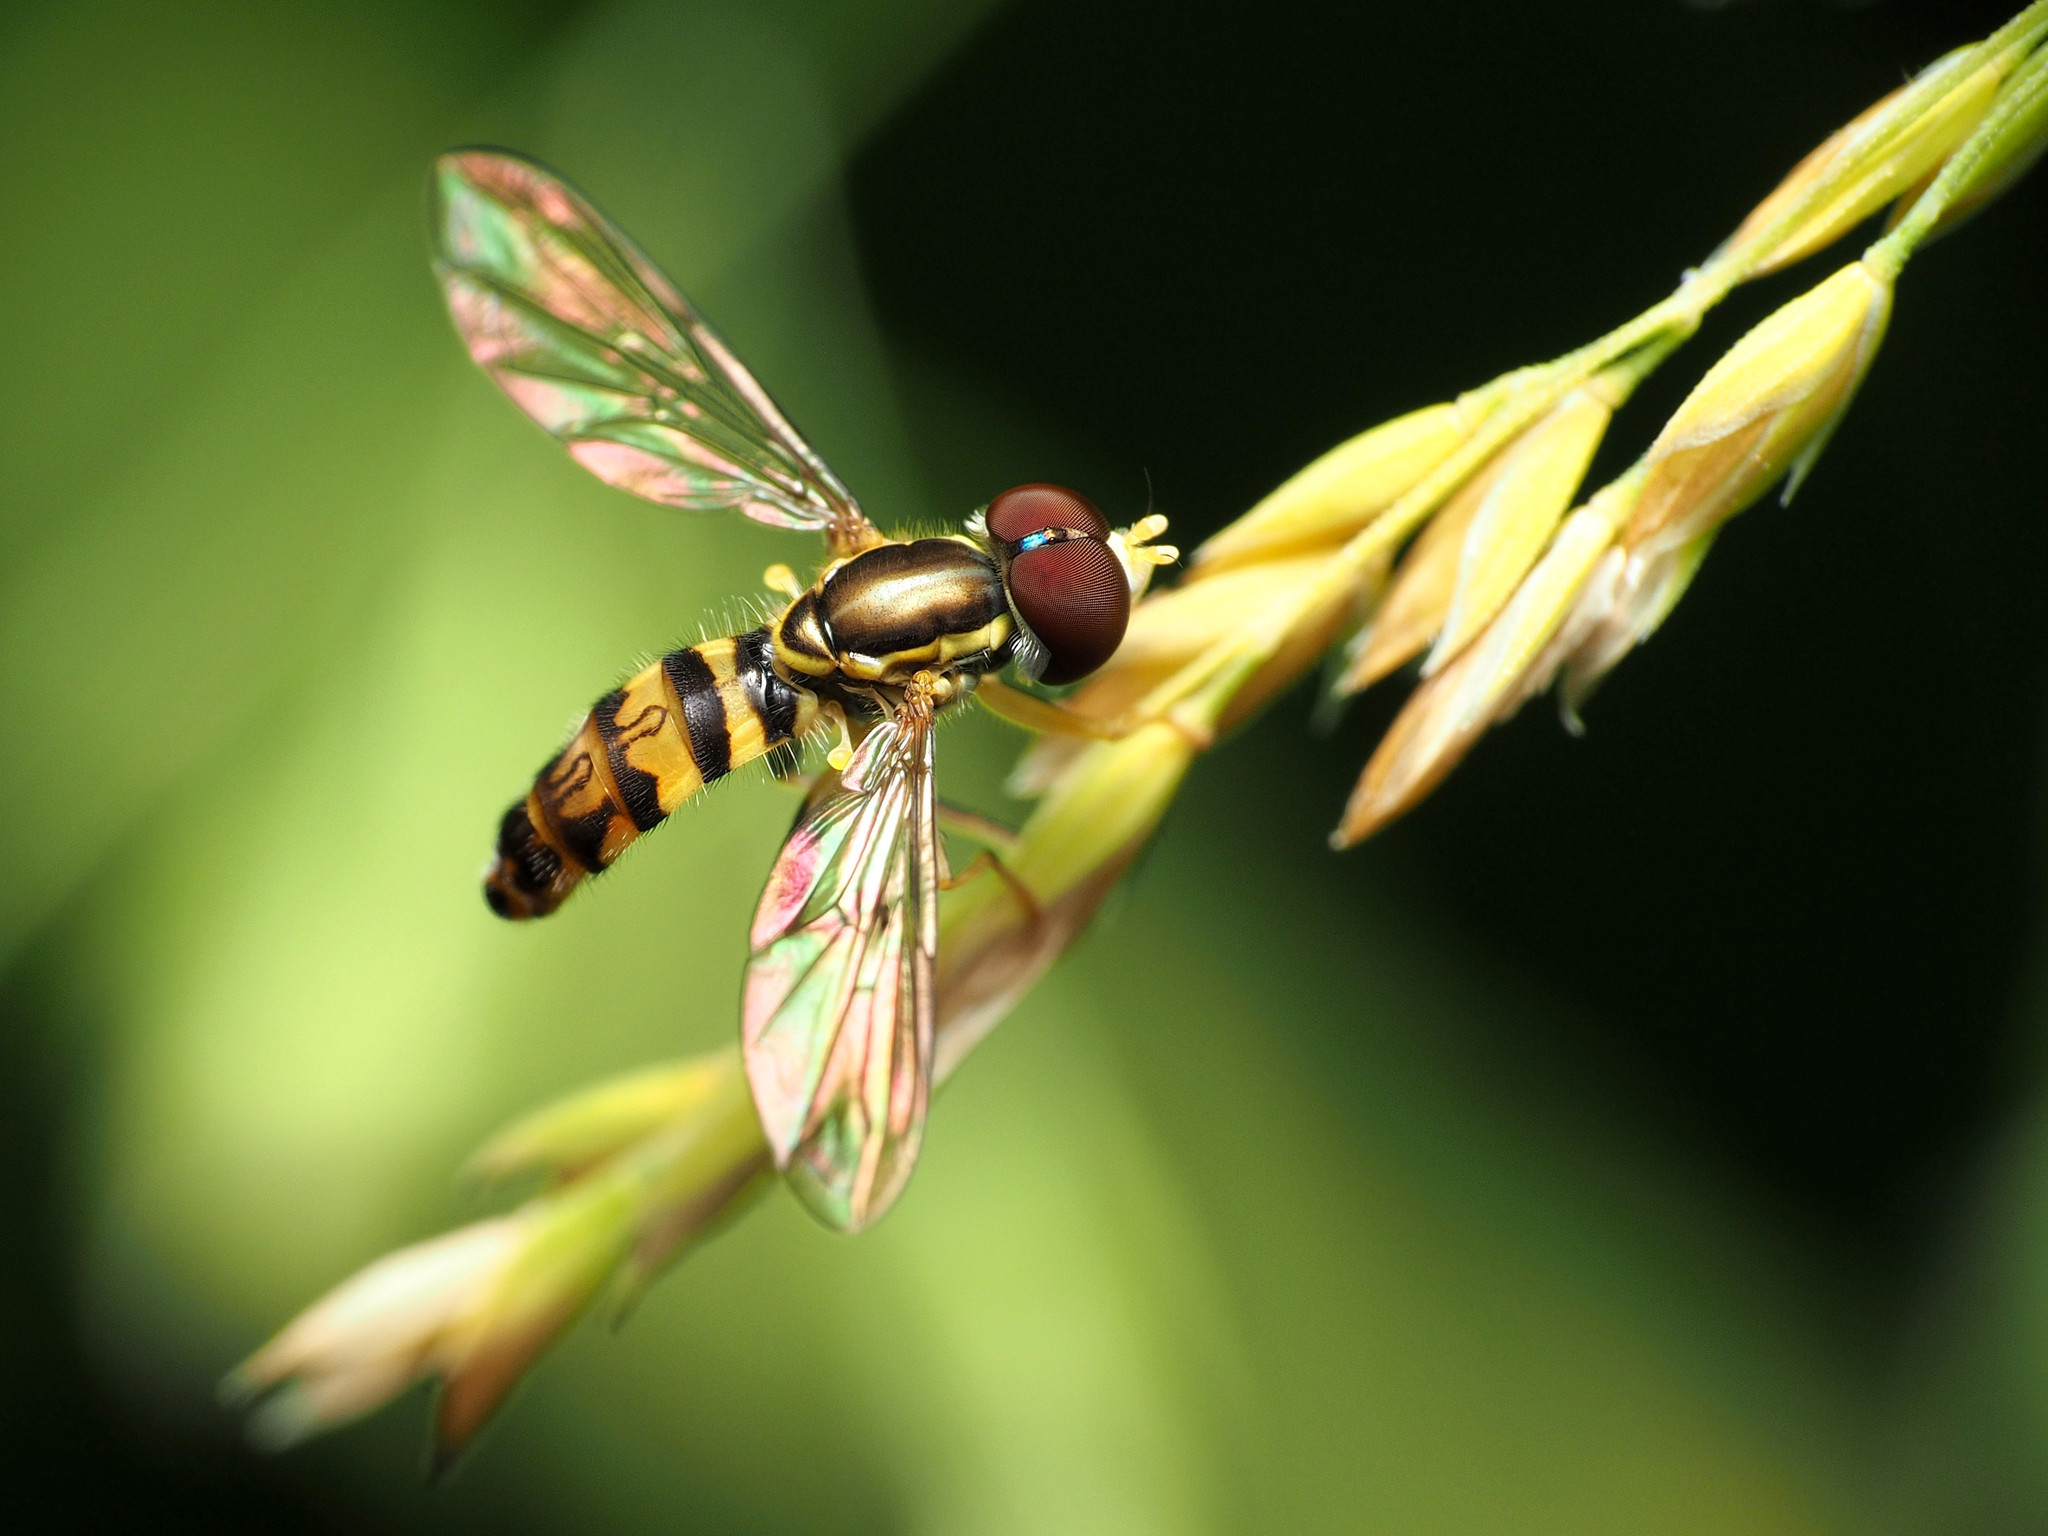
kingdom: Animalia
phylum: Arthropoda
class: Insecta
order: Diptera
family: Syrphidae
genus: Toxomerus
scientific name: Toxomerus geminatus
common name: Eastern calligrapher
